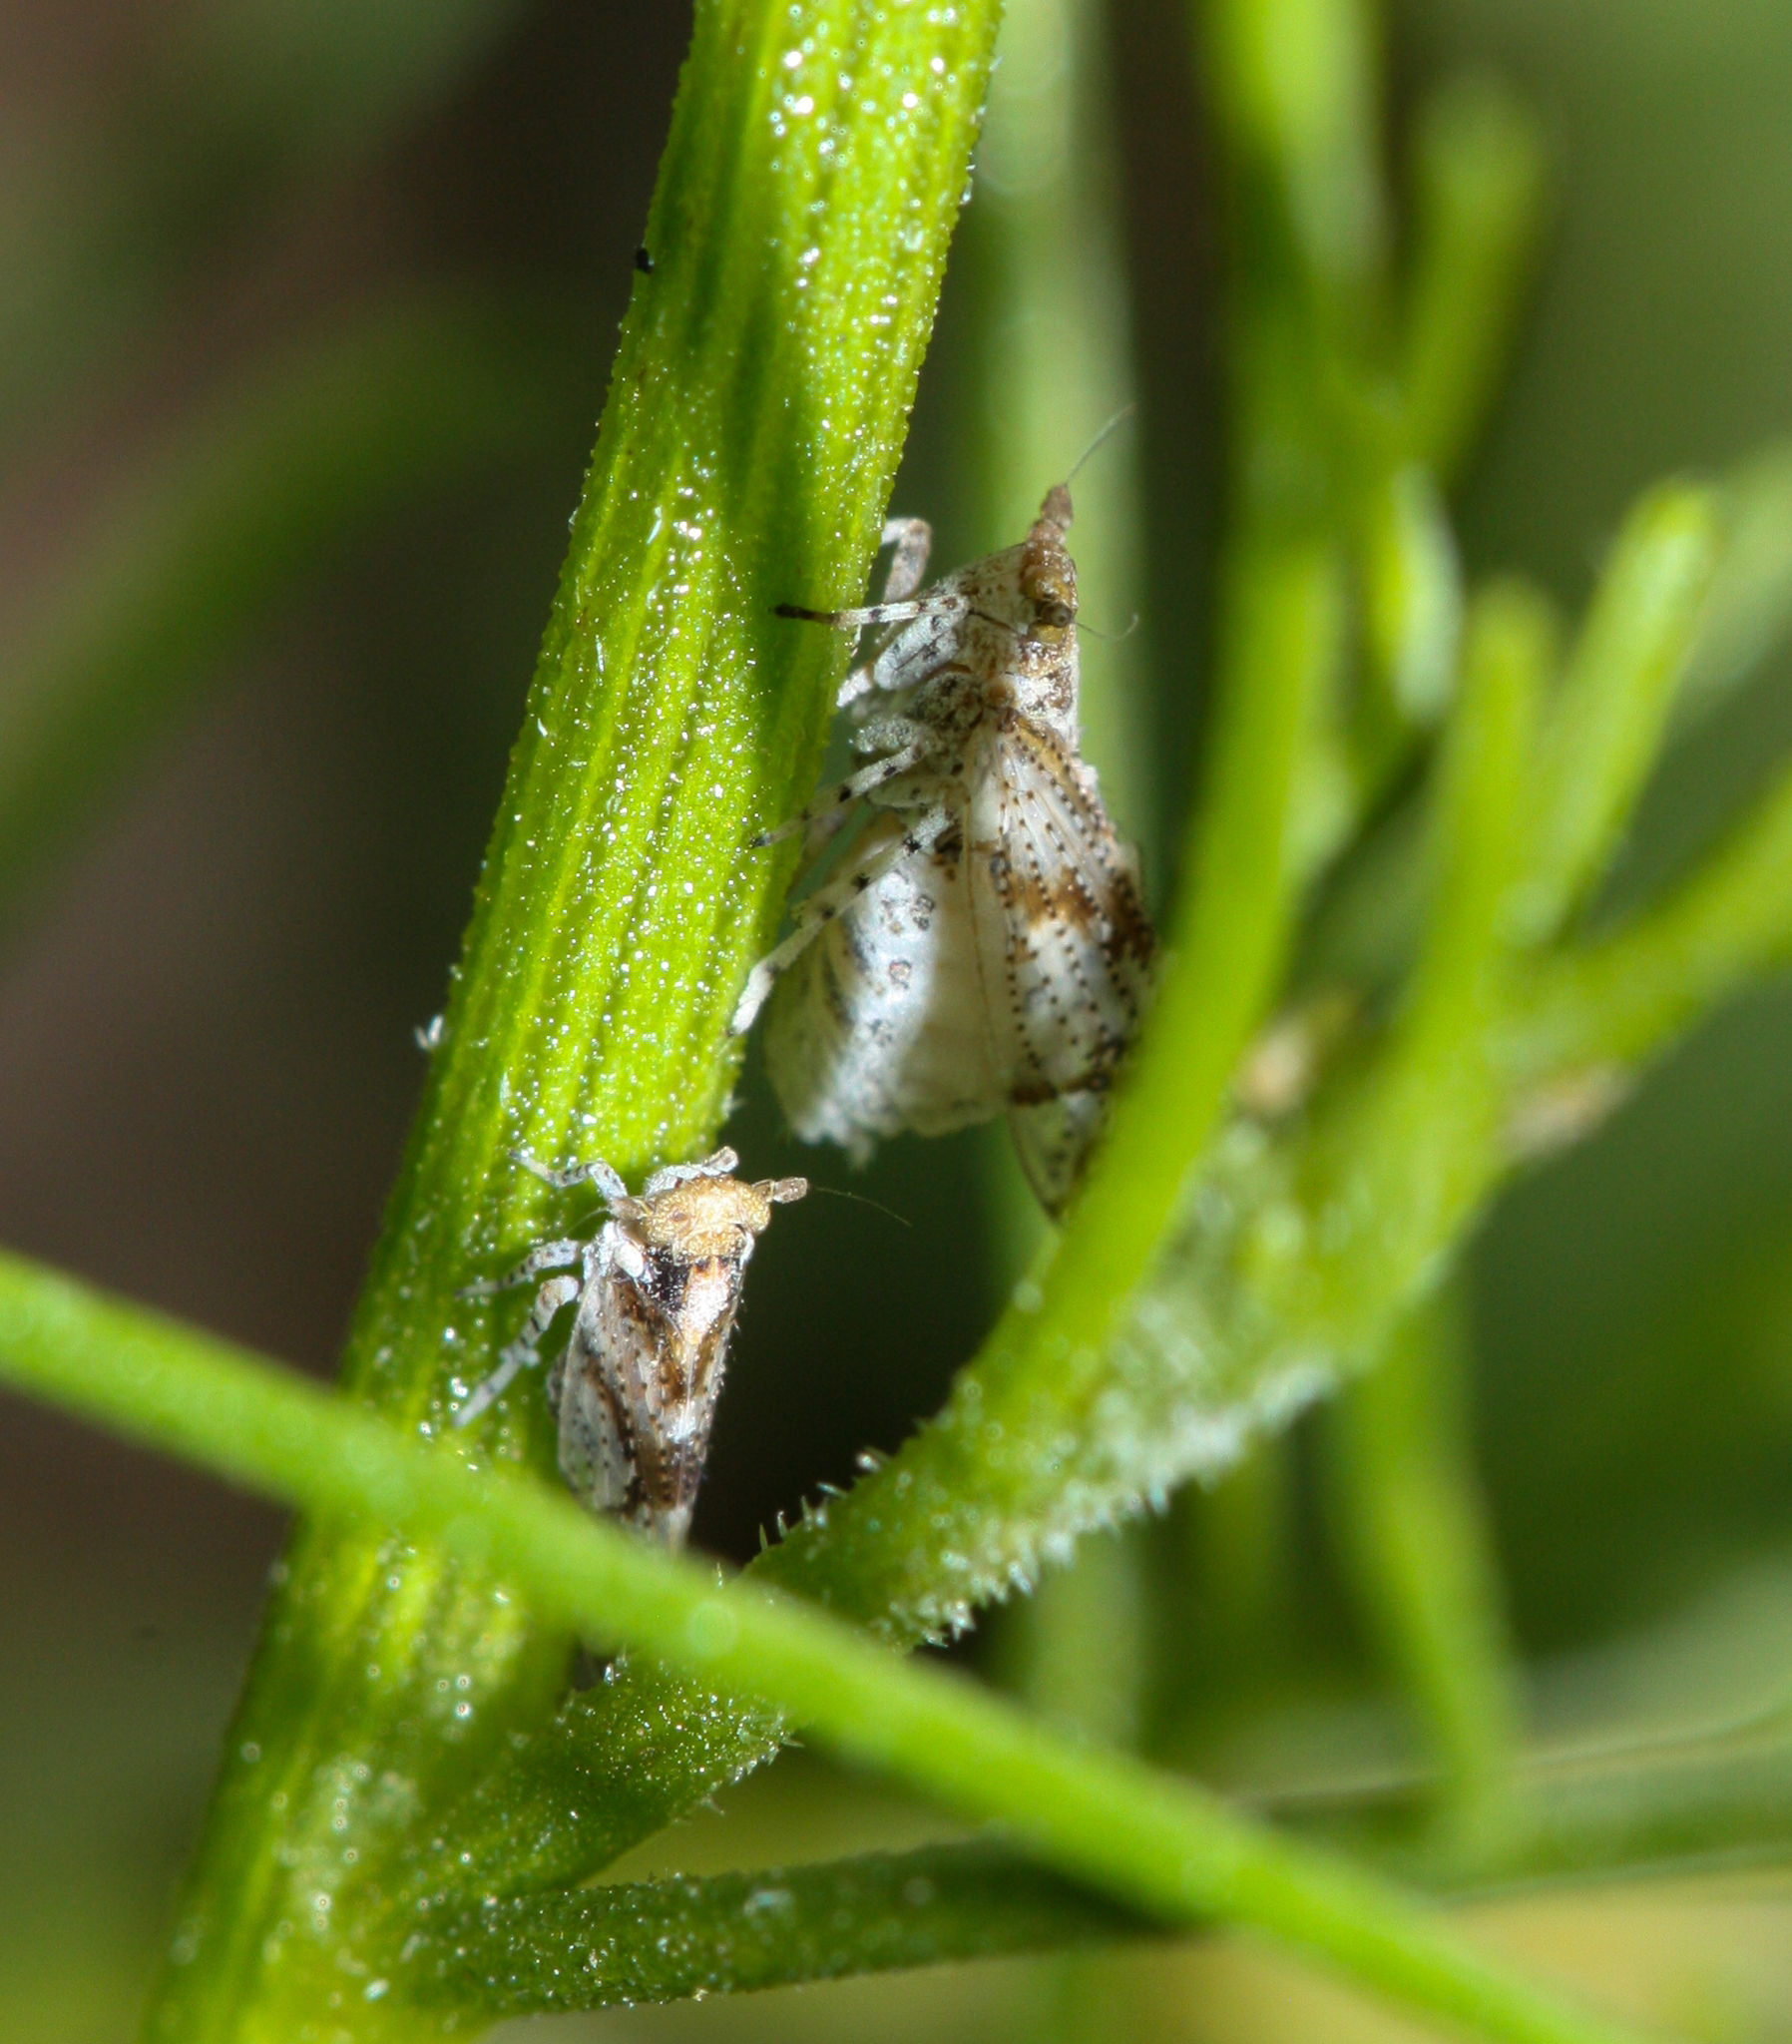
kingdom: Animalia
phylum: Arthropoda
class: Insecta
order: Hemiptera
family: Delphacidae
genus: Stobaera
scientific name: Stobaera
